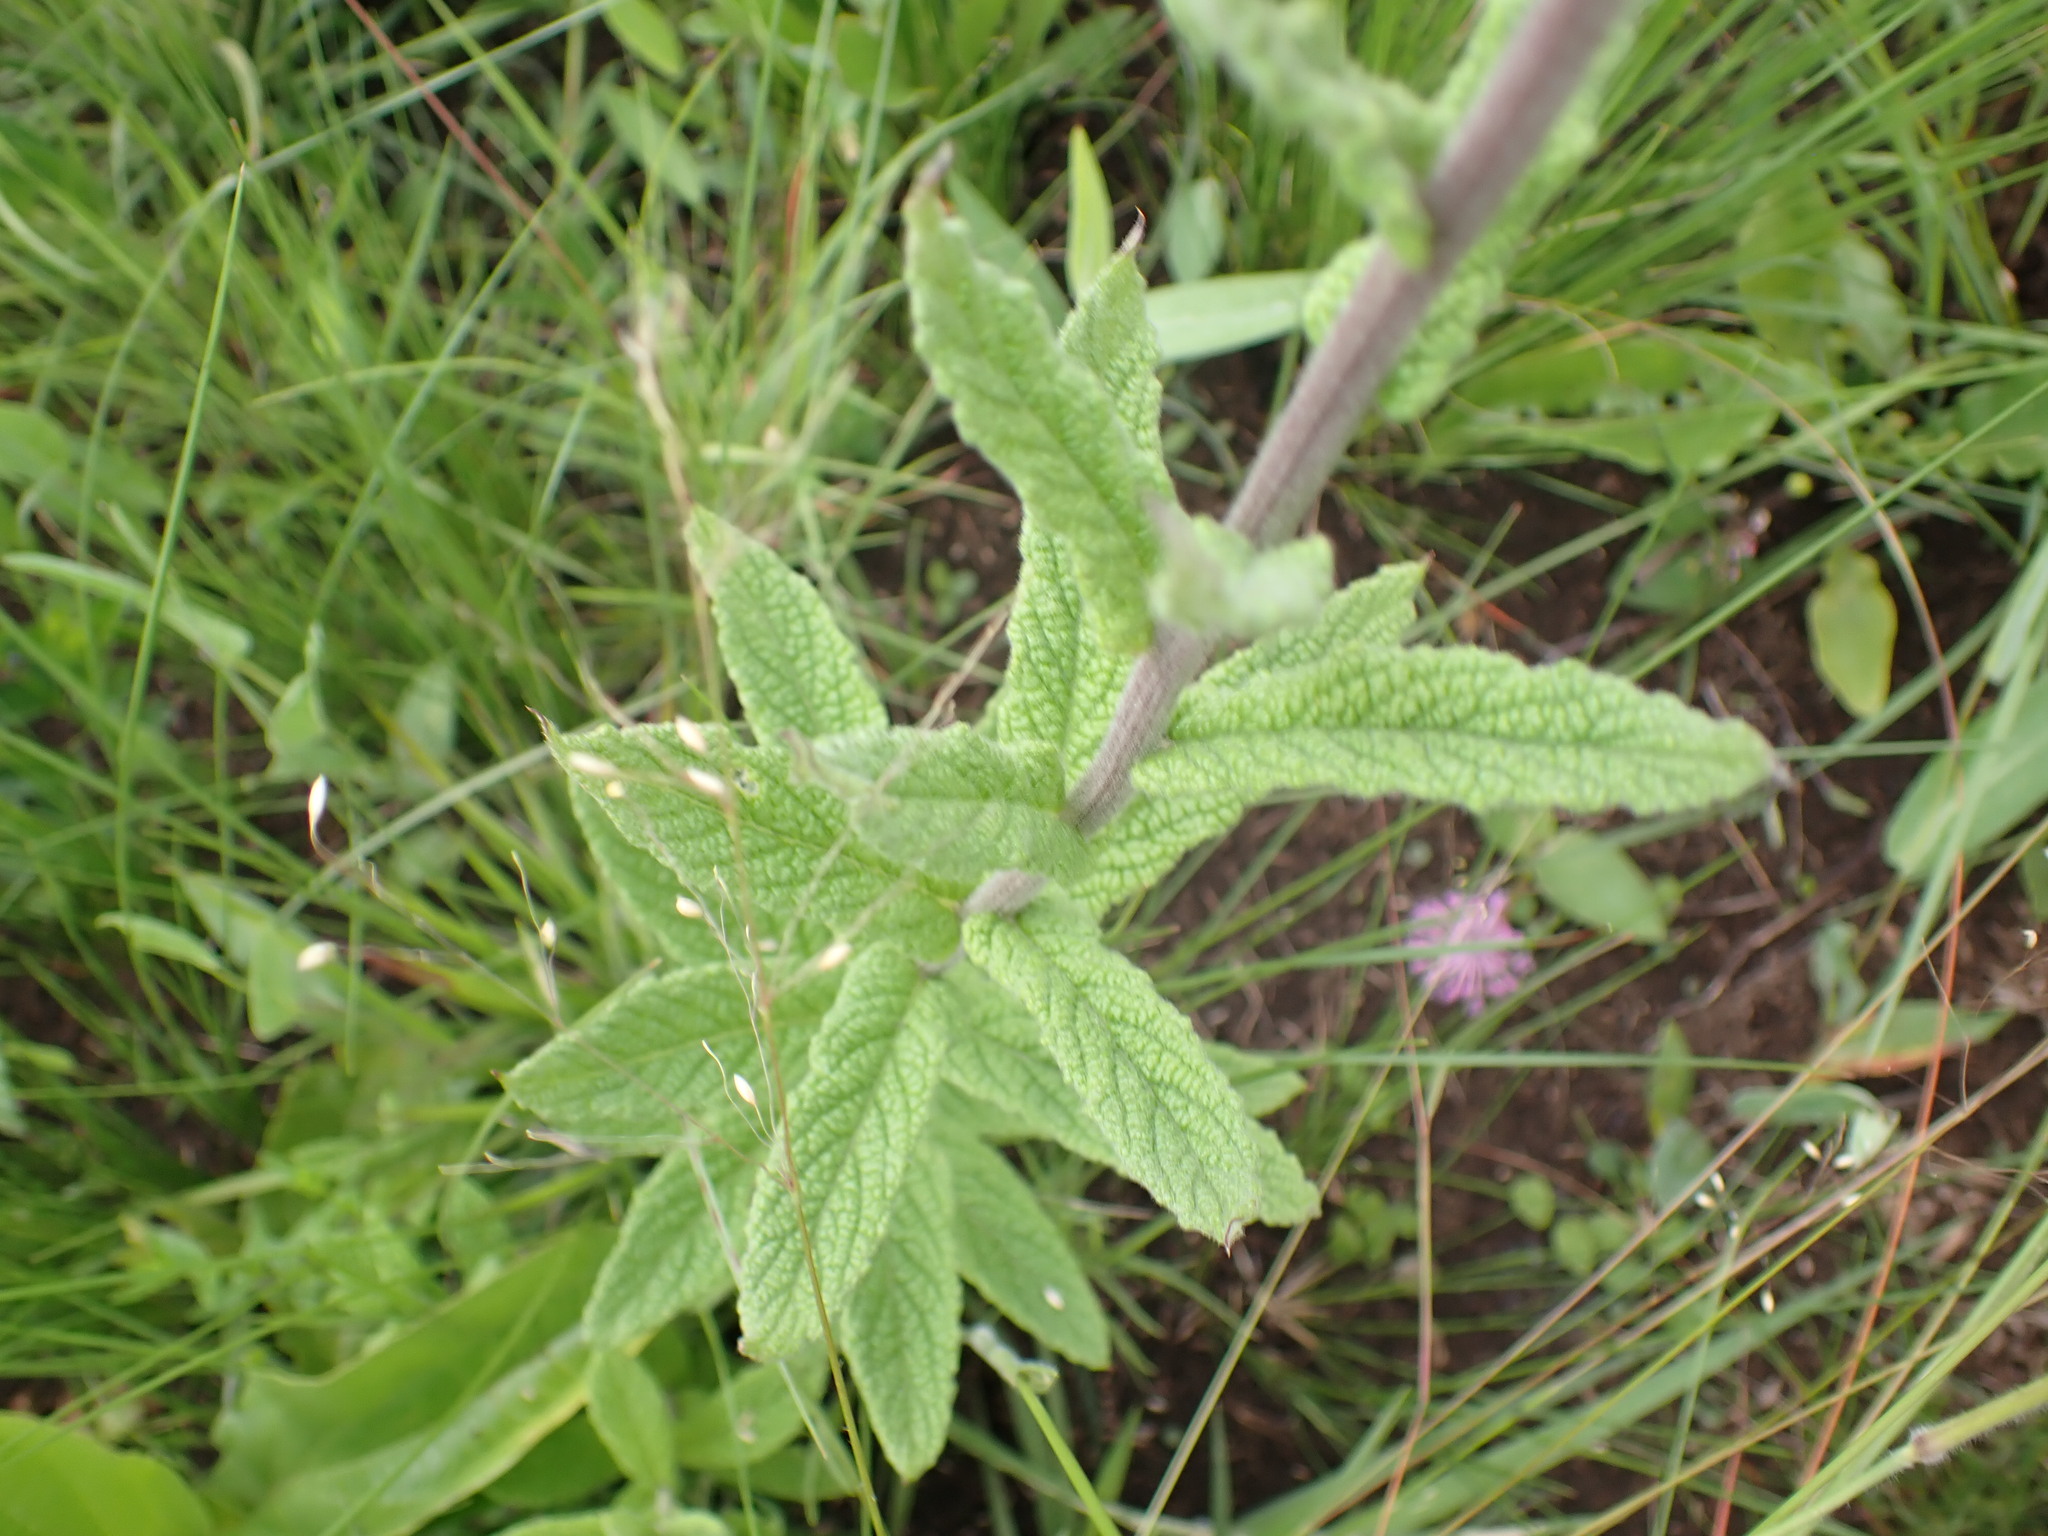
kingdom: Plantae
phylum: Tracheophyta
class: Magnoliopsida
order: Asterales
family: Asteraceae
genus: Hilliardiella
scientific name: Hilliardiella hirsuta
